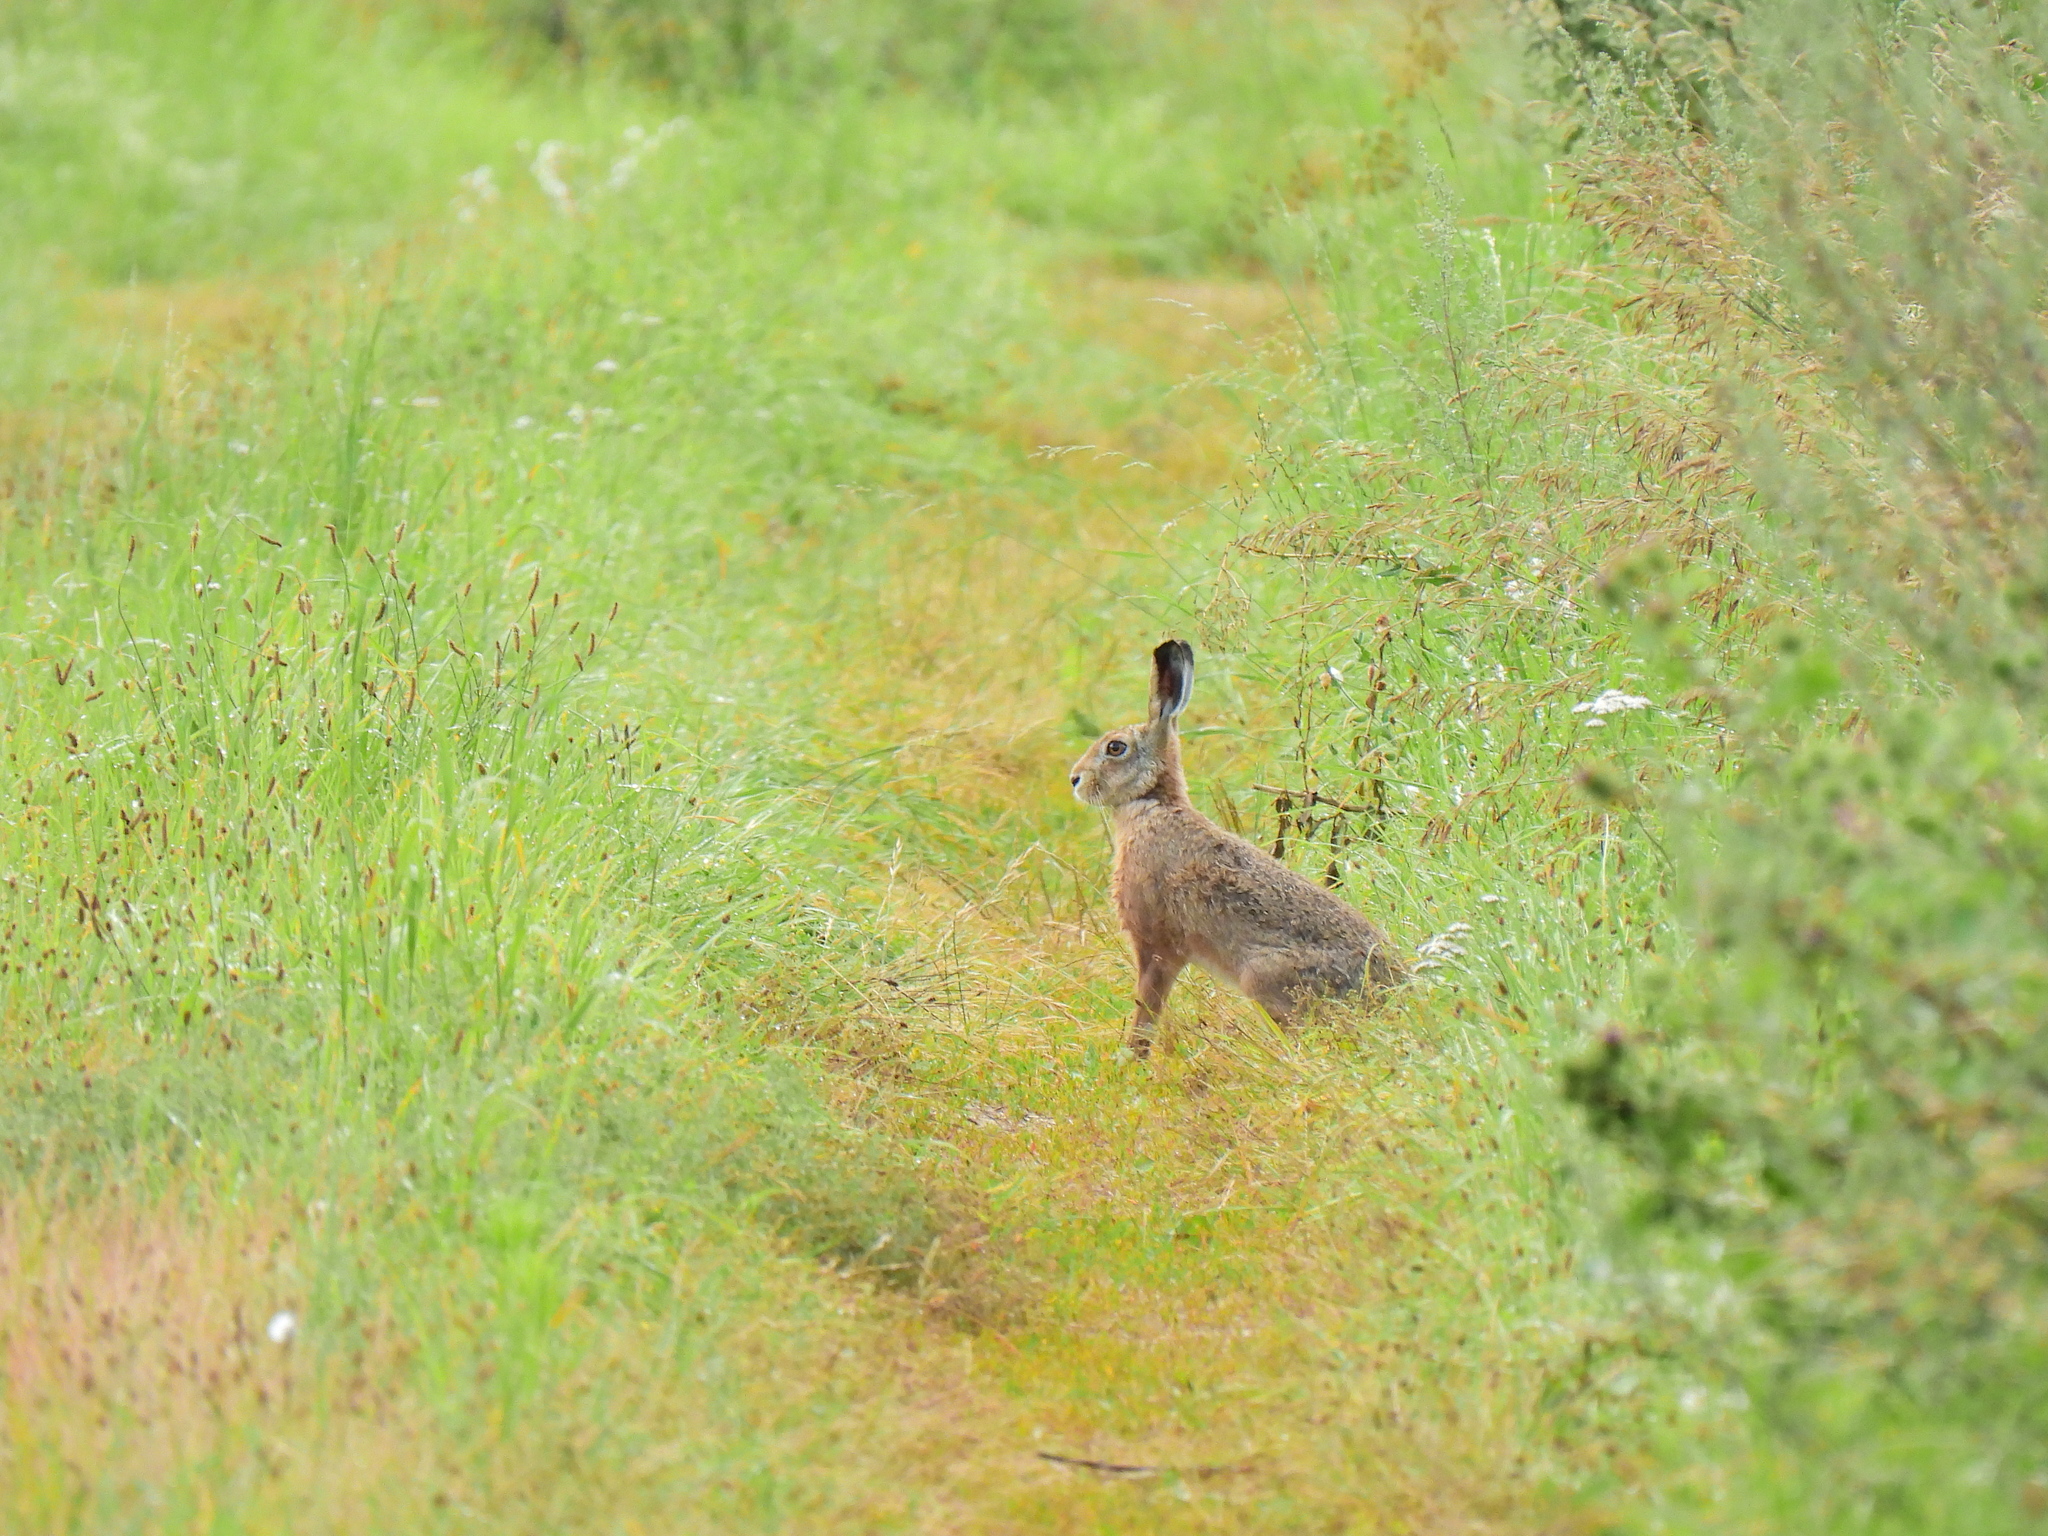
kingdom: Animalia
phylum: Chordata
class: Mammalia
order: Lagomorpha
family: Leporidae
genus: Lepus
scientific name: Lepus europaeus
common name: European hare
